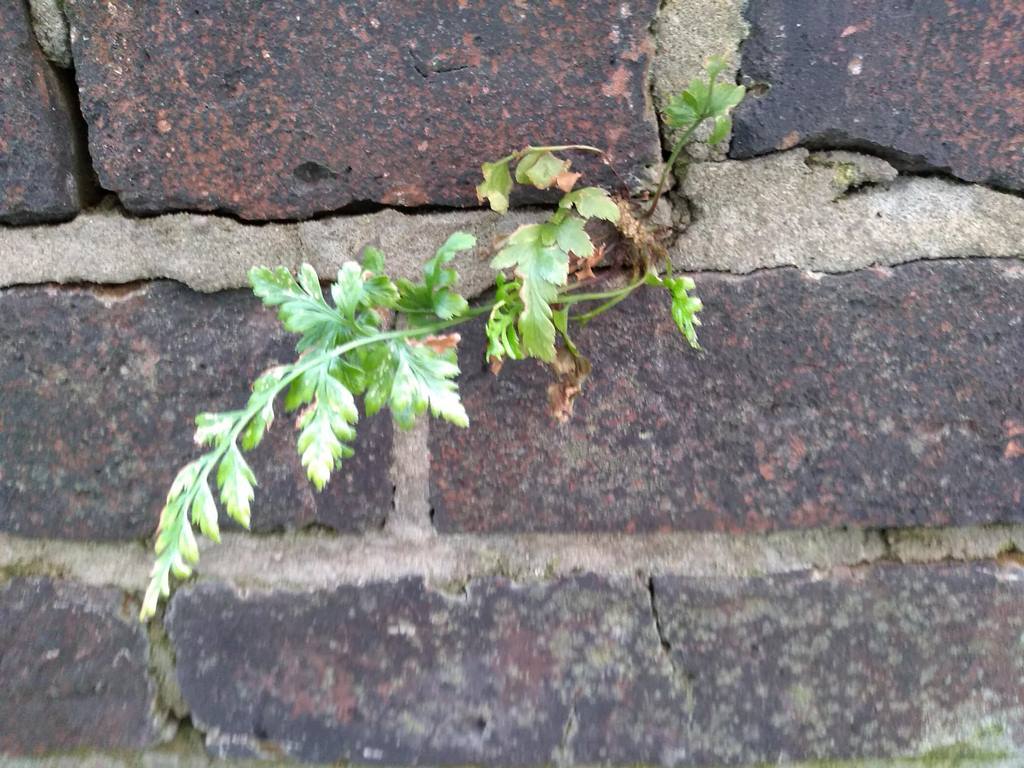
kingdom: Plantae
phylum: Tracheophyta
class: Polypodiopsida
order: Polypodiales
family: Aspleniaceae
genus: Asplenium
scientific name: Asplenium adiantum-nigrum
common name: Black spleenwort
